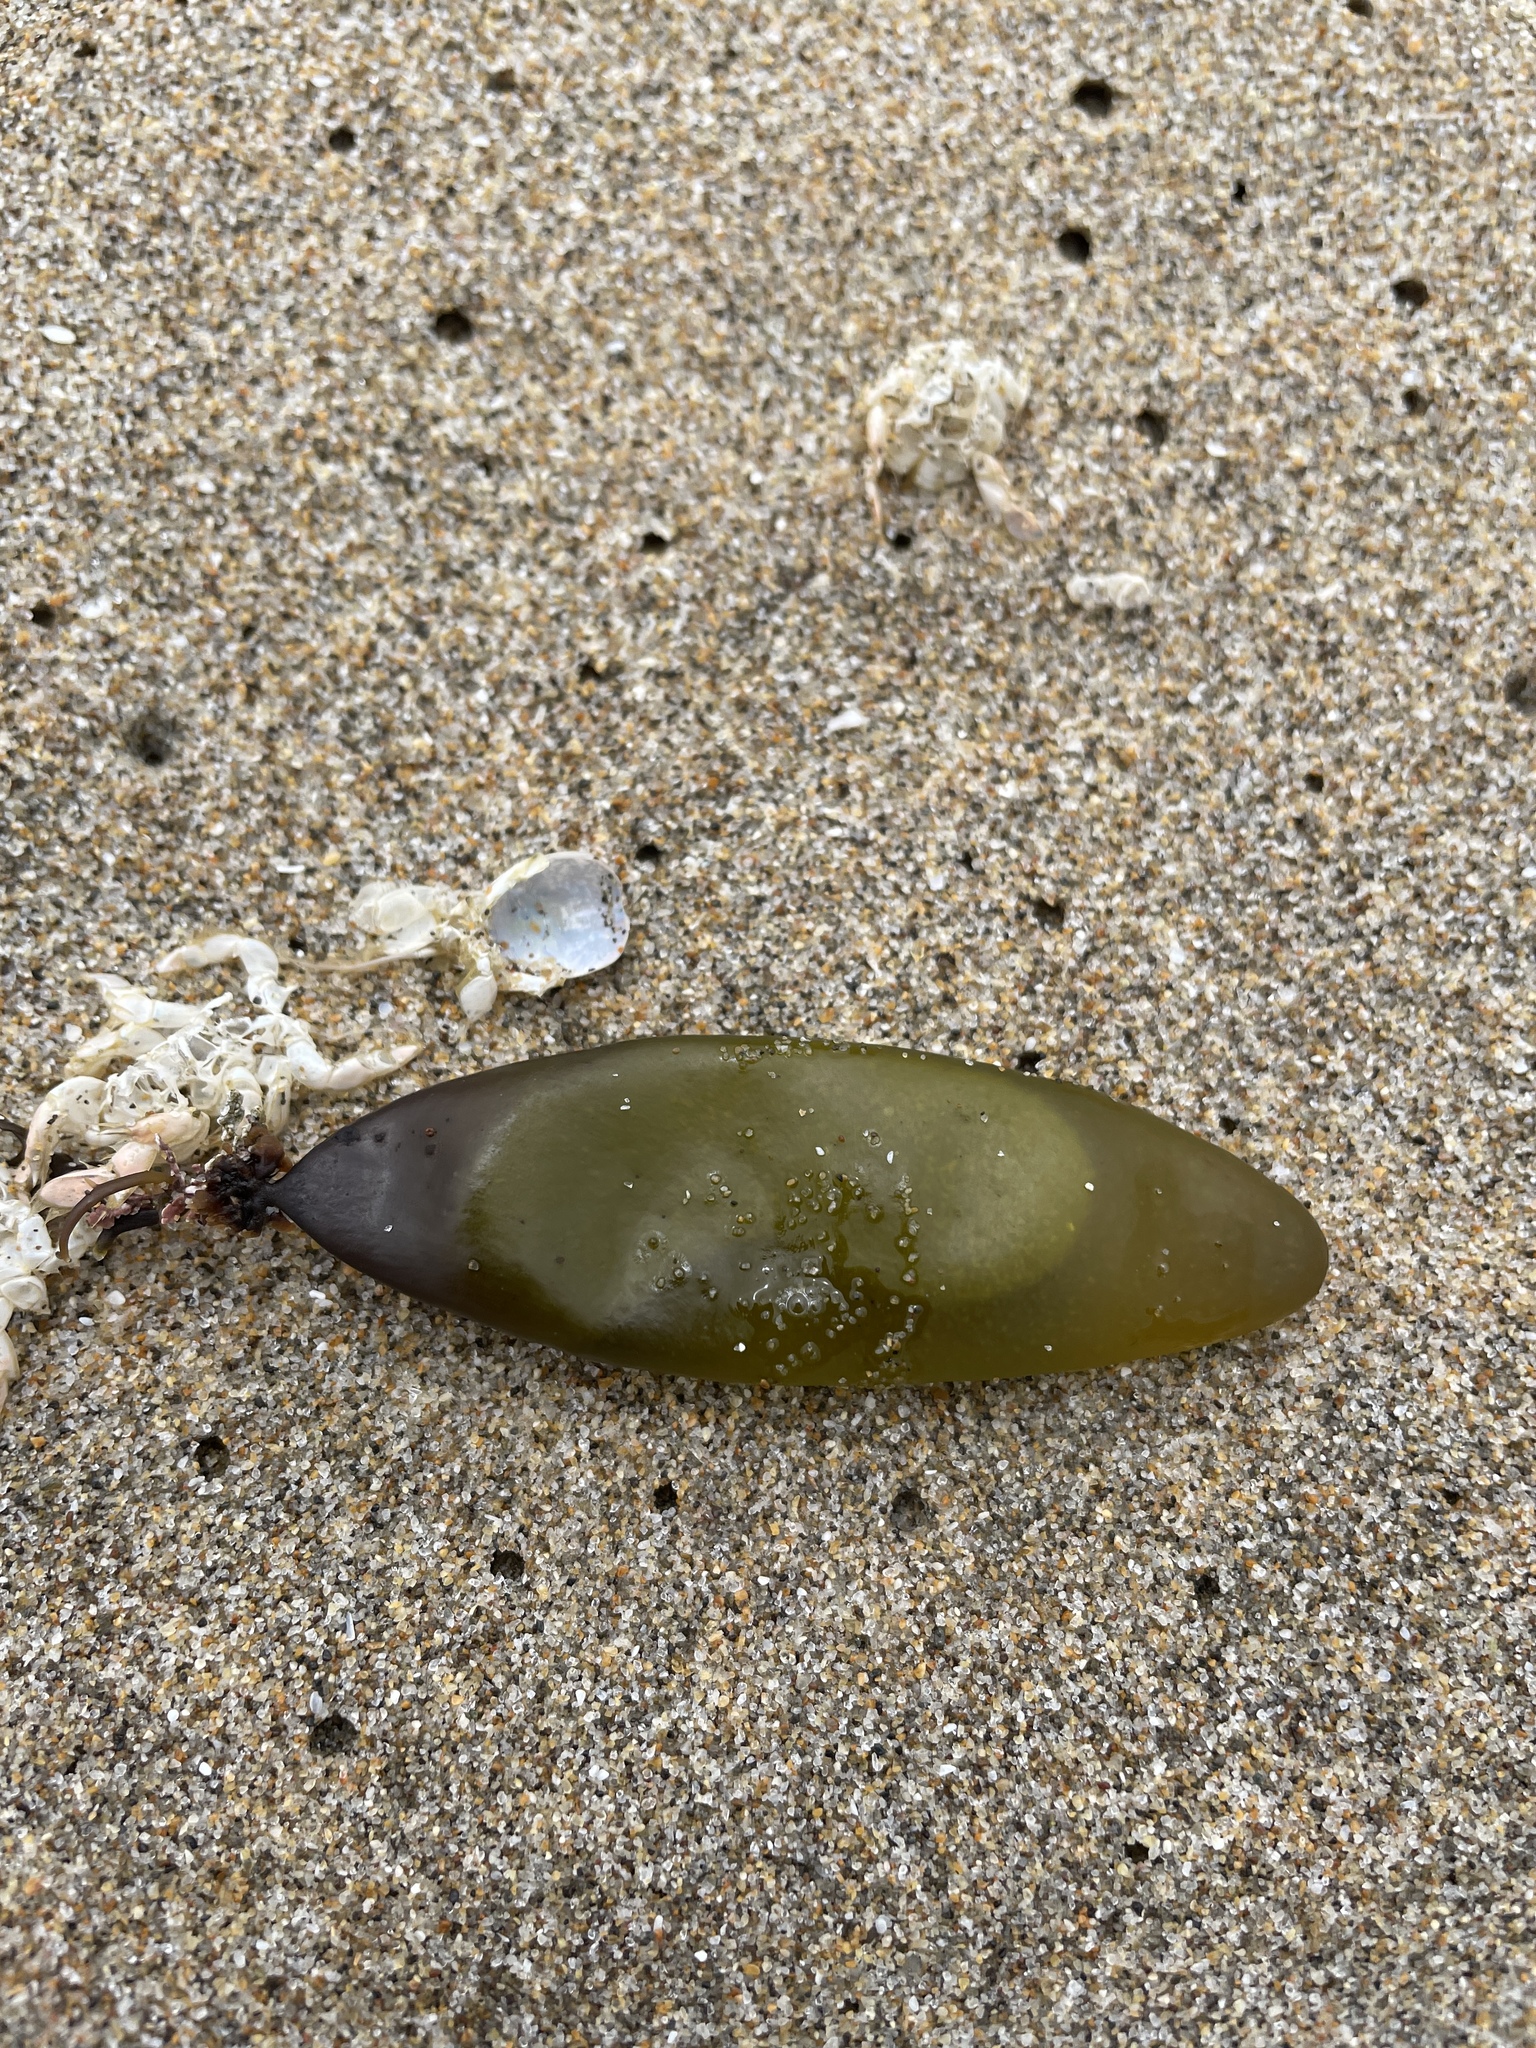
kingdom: Plantae
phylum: Rhodophyta
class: Florideophyceae
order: Palmariales
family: Palmariaceae
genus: Halosaccion
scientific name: Halosaccion glandiforme
